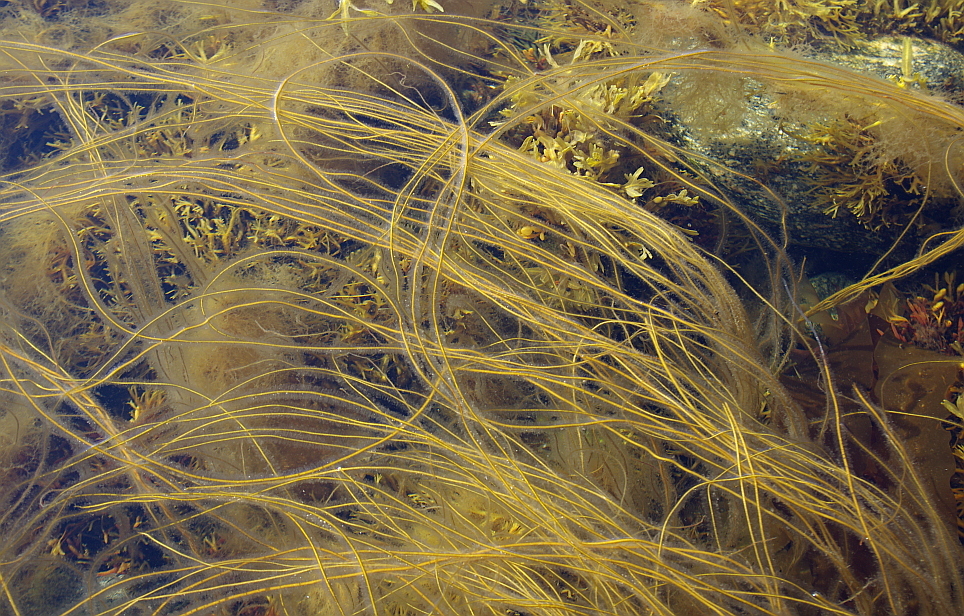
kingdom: Chromista
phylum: Ochrophyta
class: Phaeophyceae
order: Tilopteridales
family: Halosiphonaceae
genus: Halosiphon
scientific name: Halosiphon tomentosus
